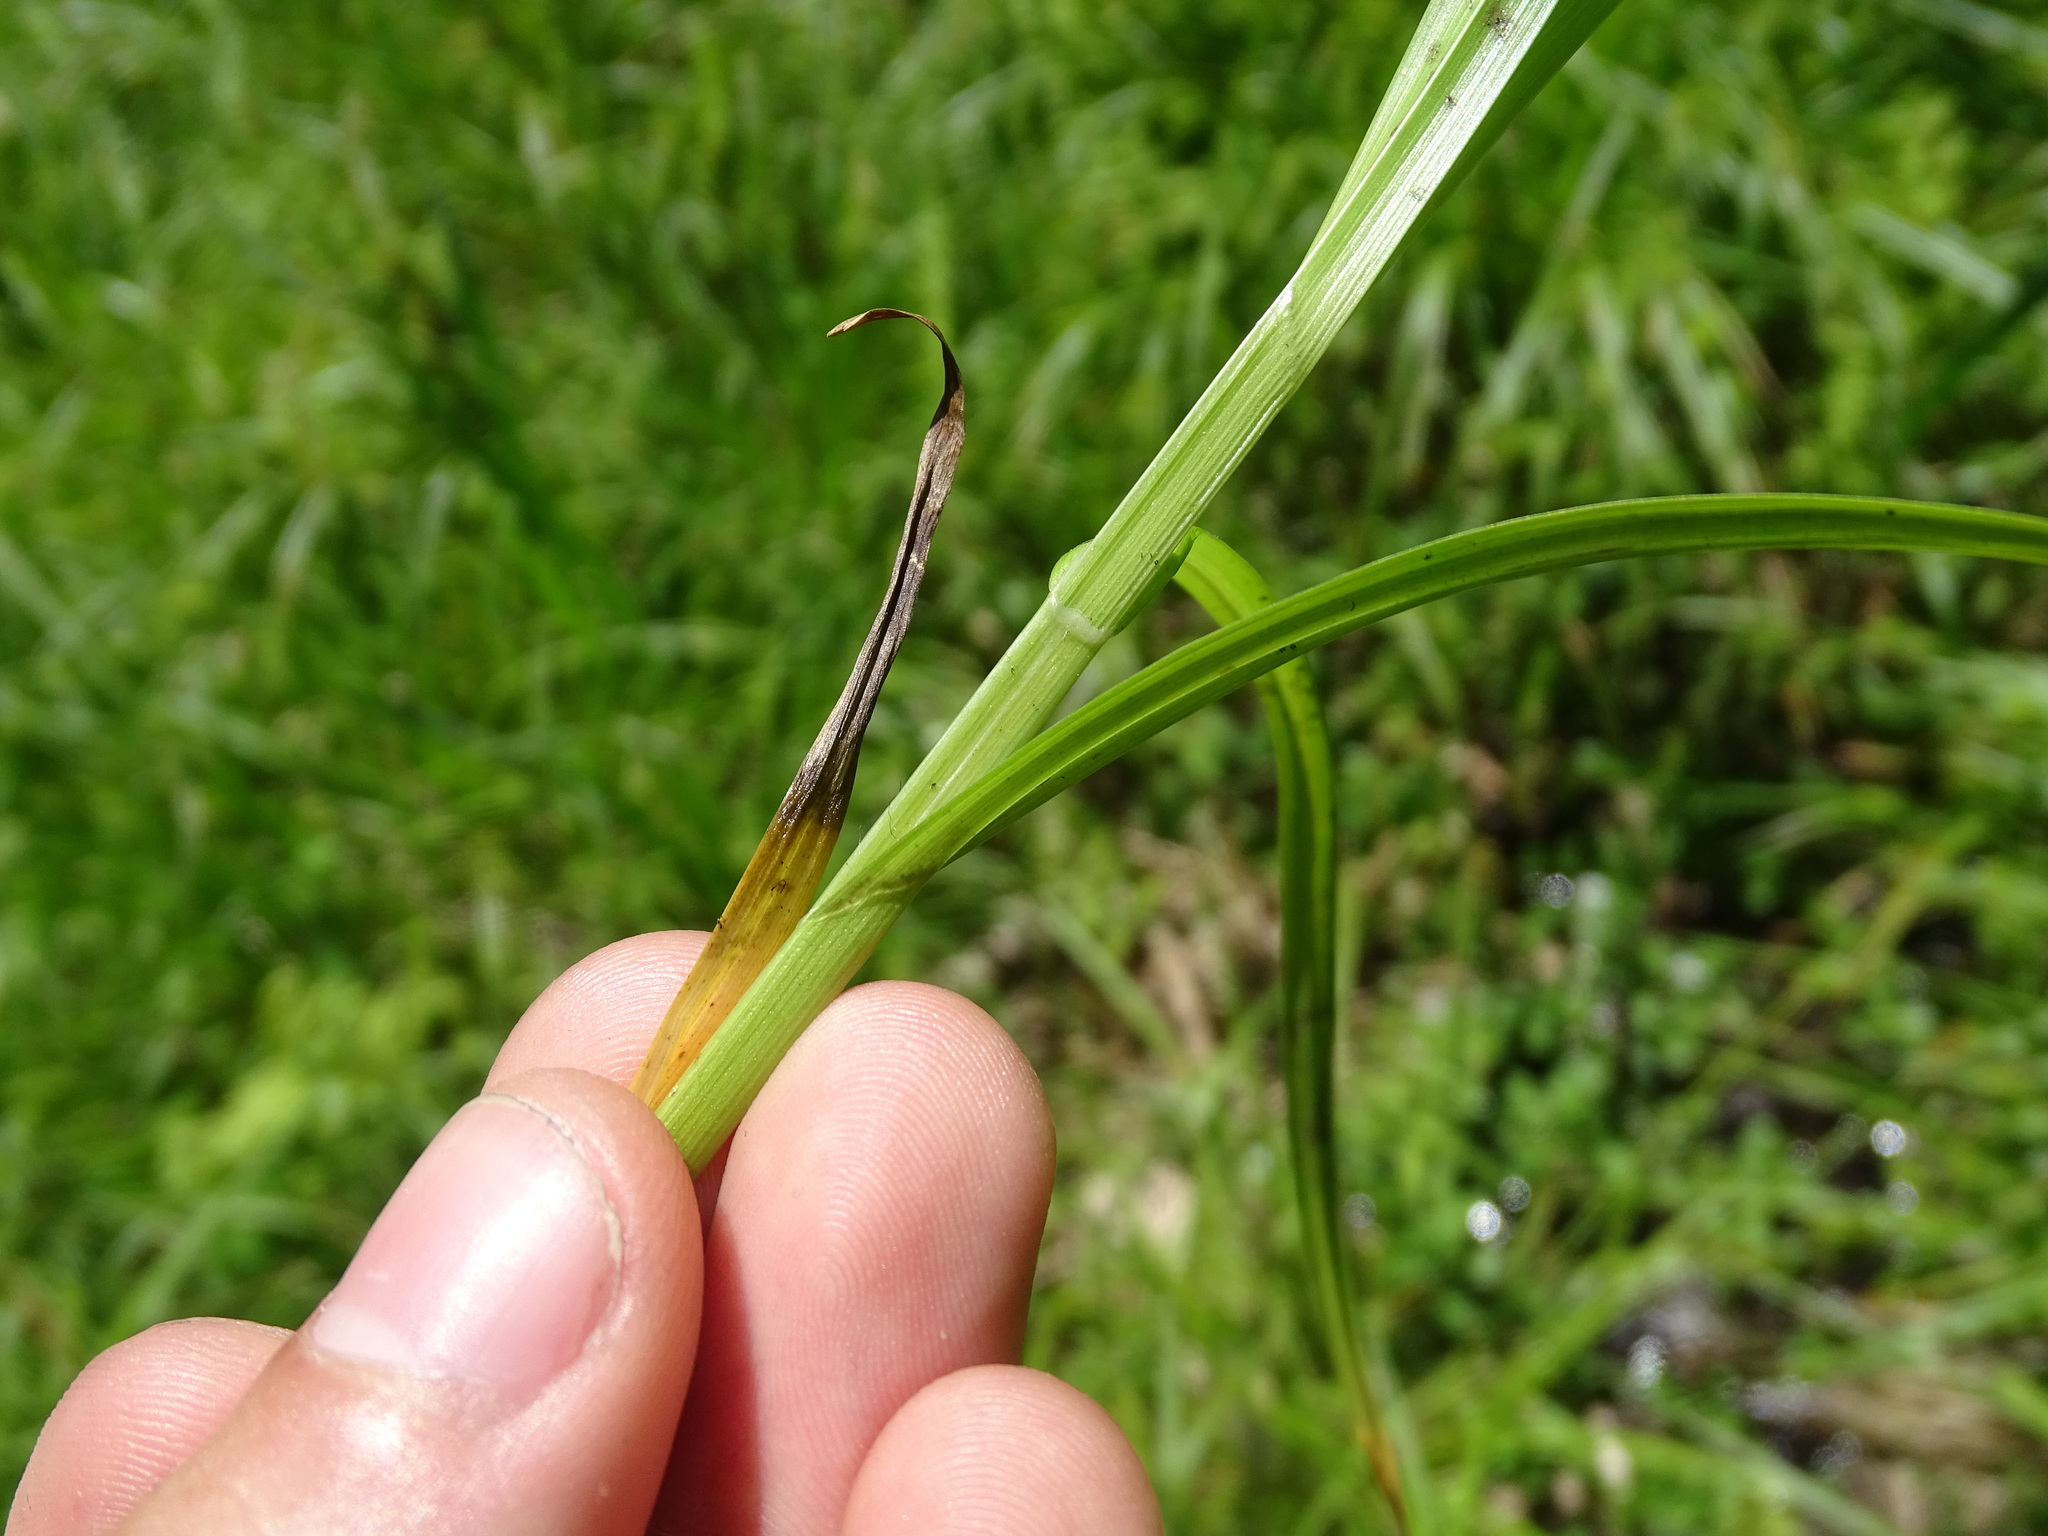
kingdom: Plantae
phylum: Tracheophyta
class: Liliopsida
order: Poales
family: Cyperaceae
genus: Carex
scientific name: Carex laevivaginata
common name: Smooth-sheathed fox sedge
